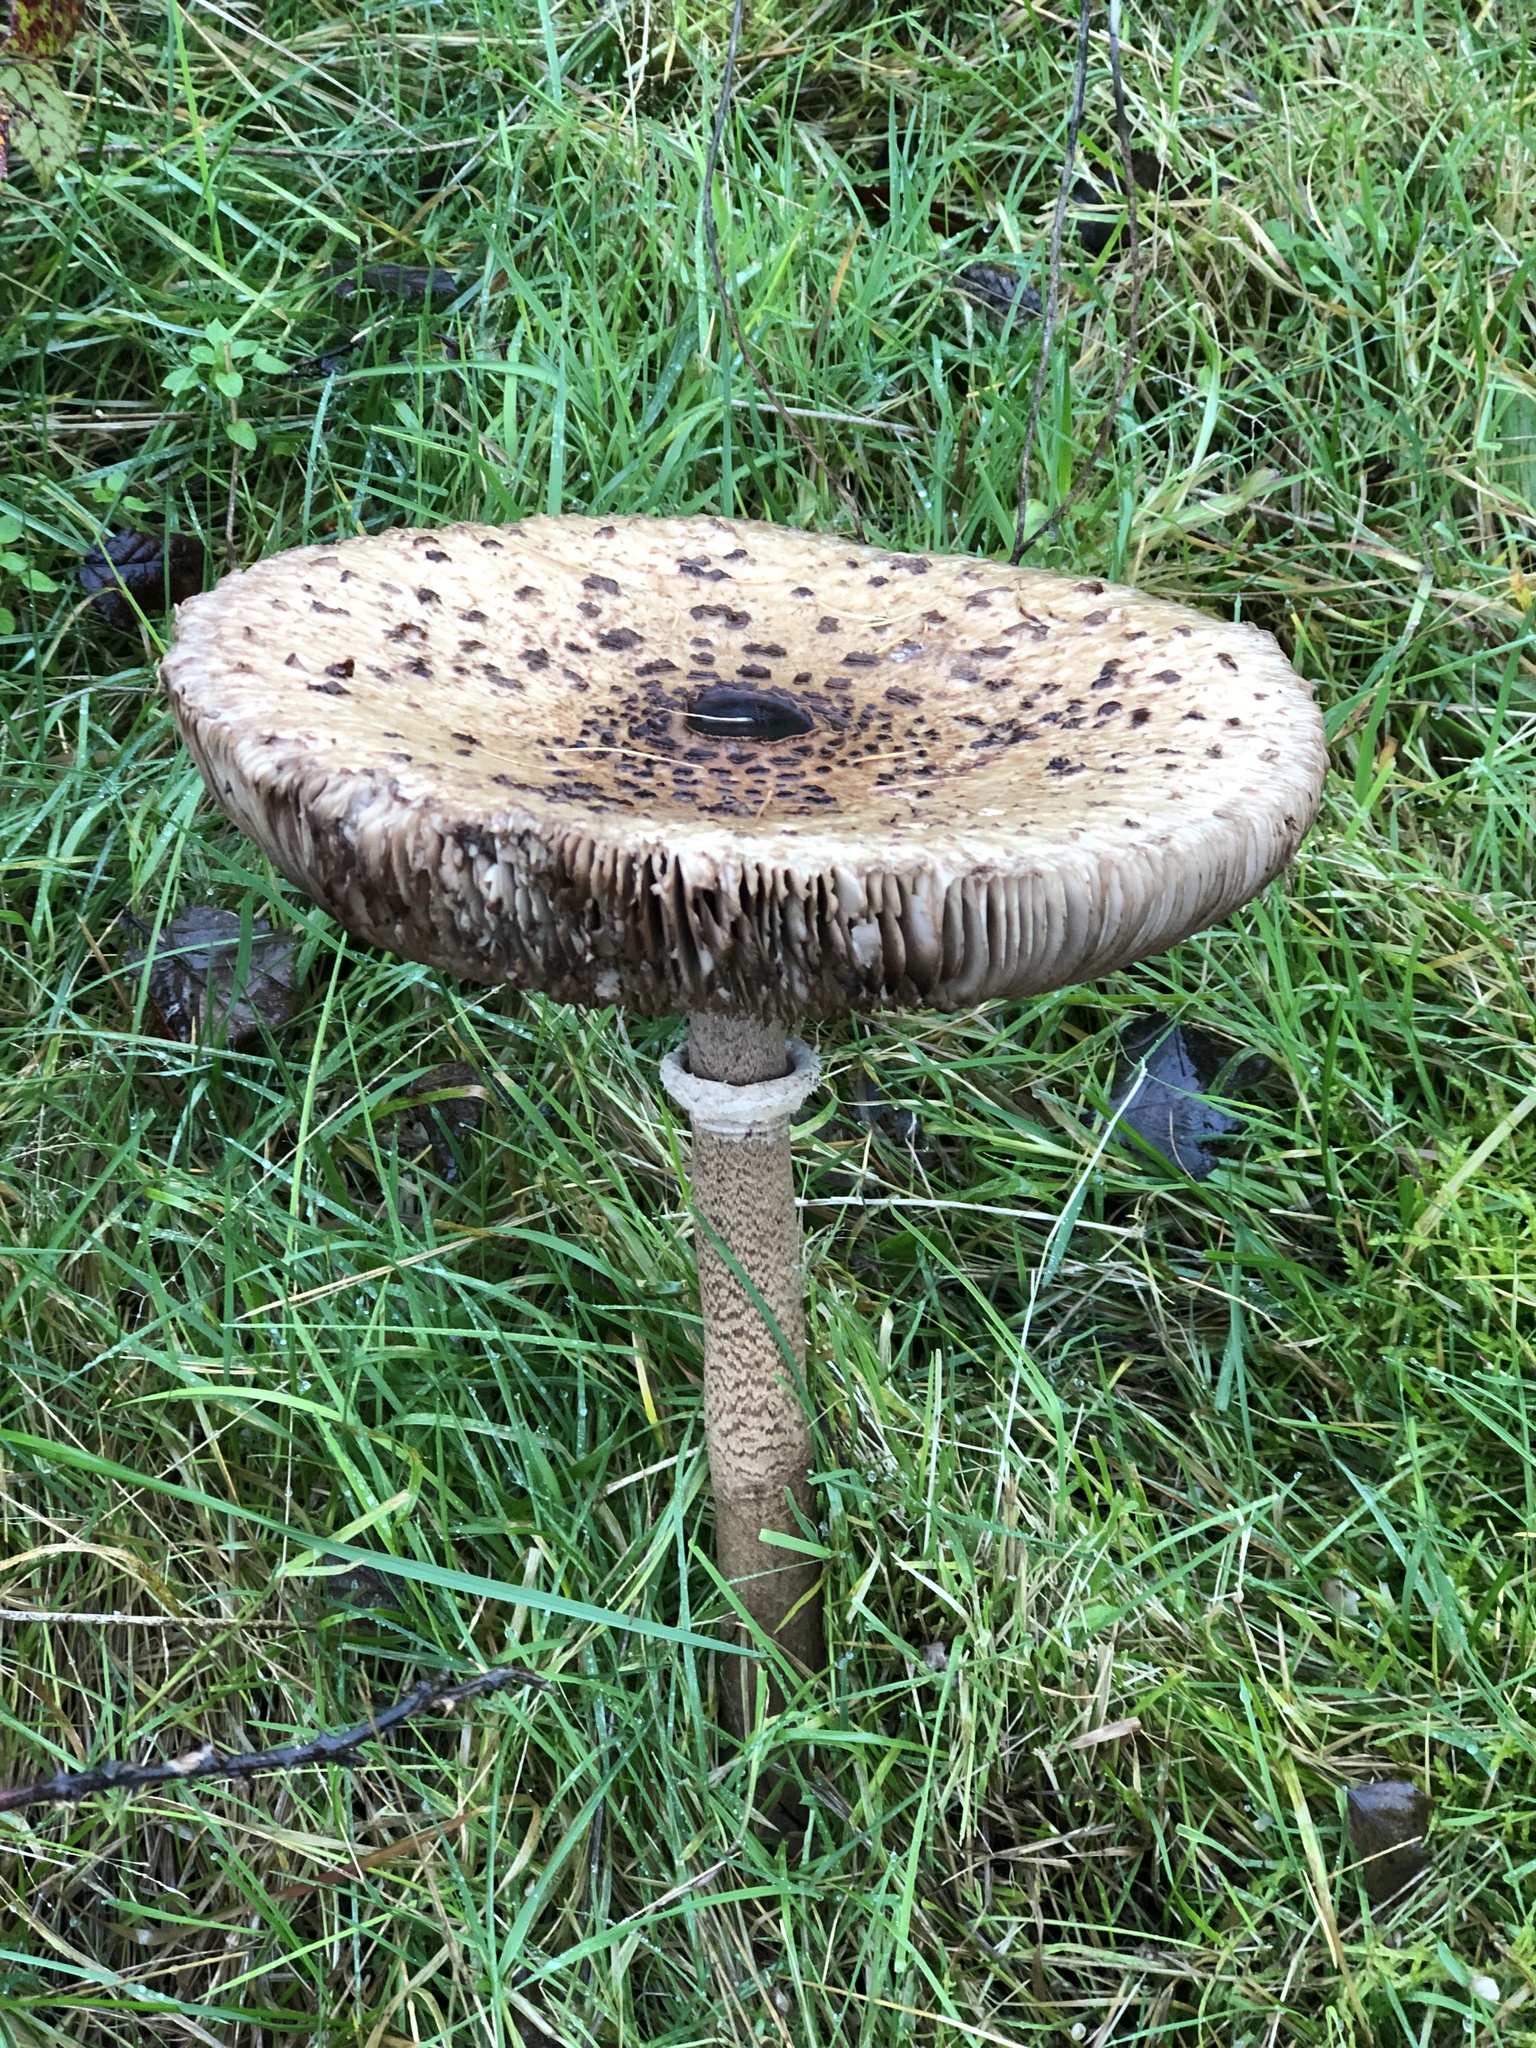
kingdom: Fungi
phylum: Basidiomycota
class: Agaricomycetes
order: Agaricales
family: Agaricaceae
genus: Macrolepiota
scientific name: Macrolepiota procera
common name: Parasol
